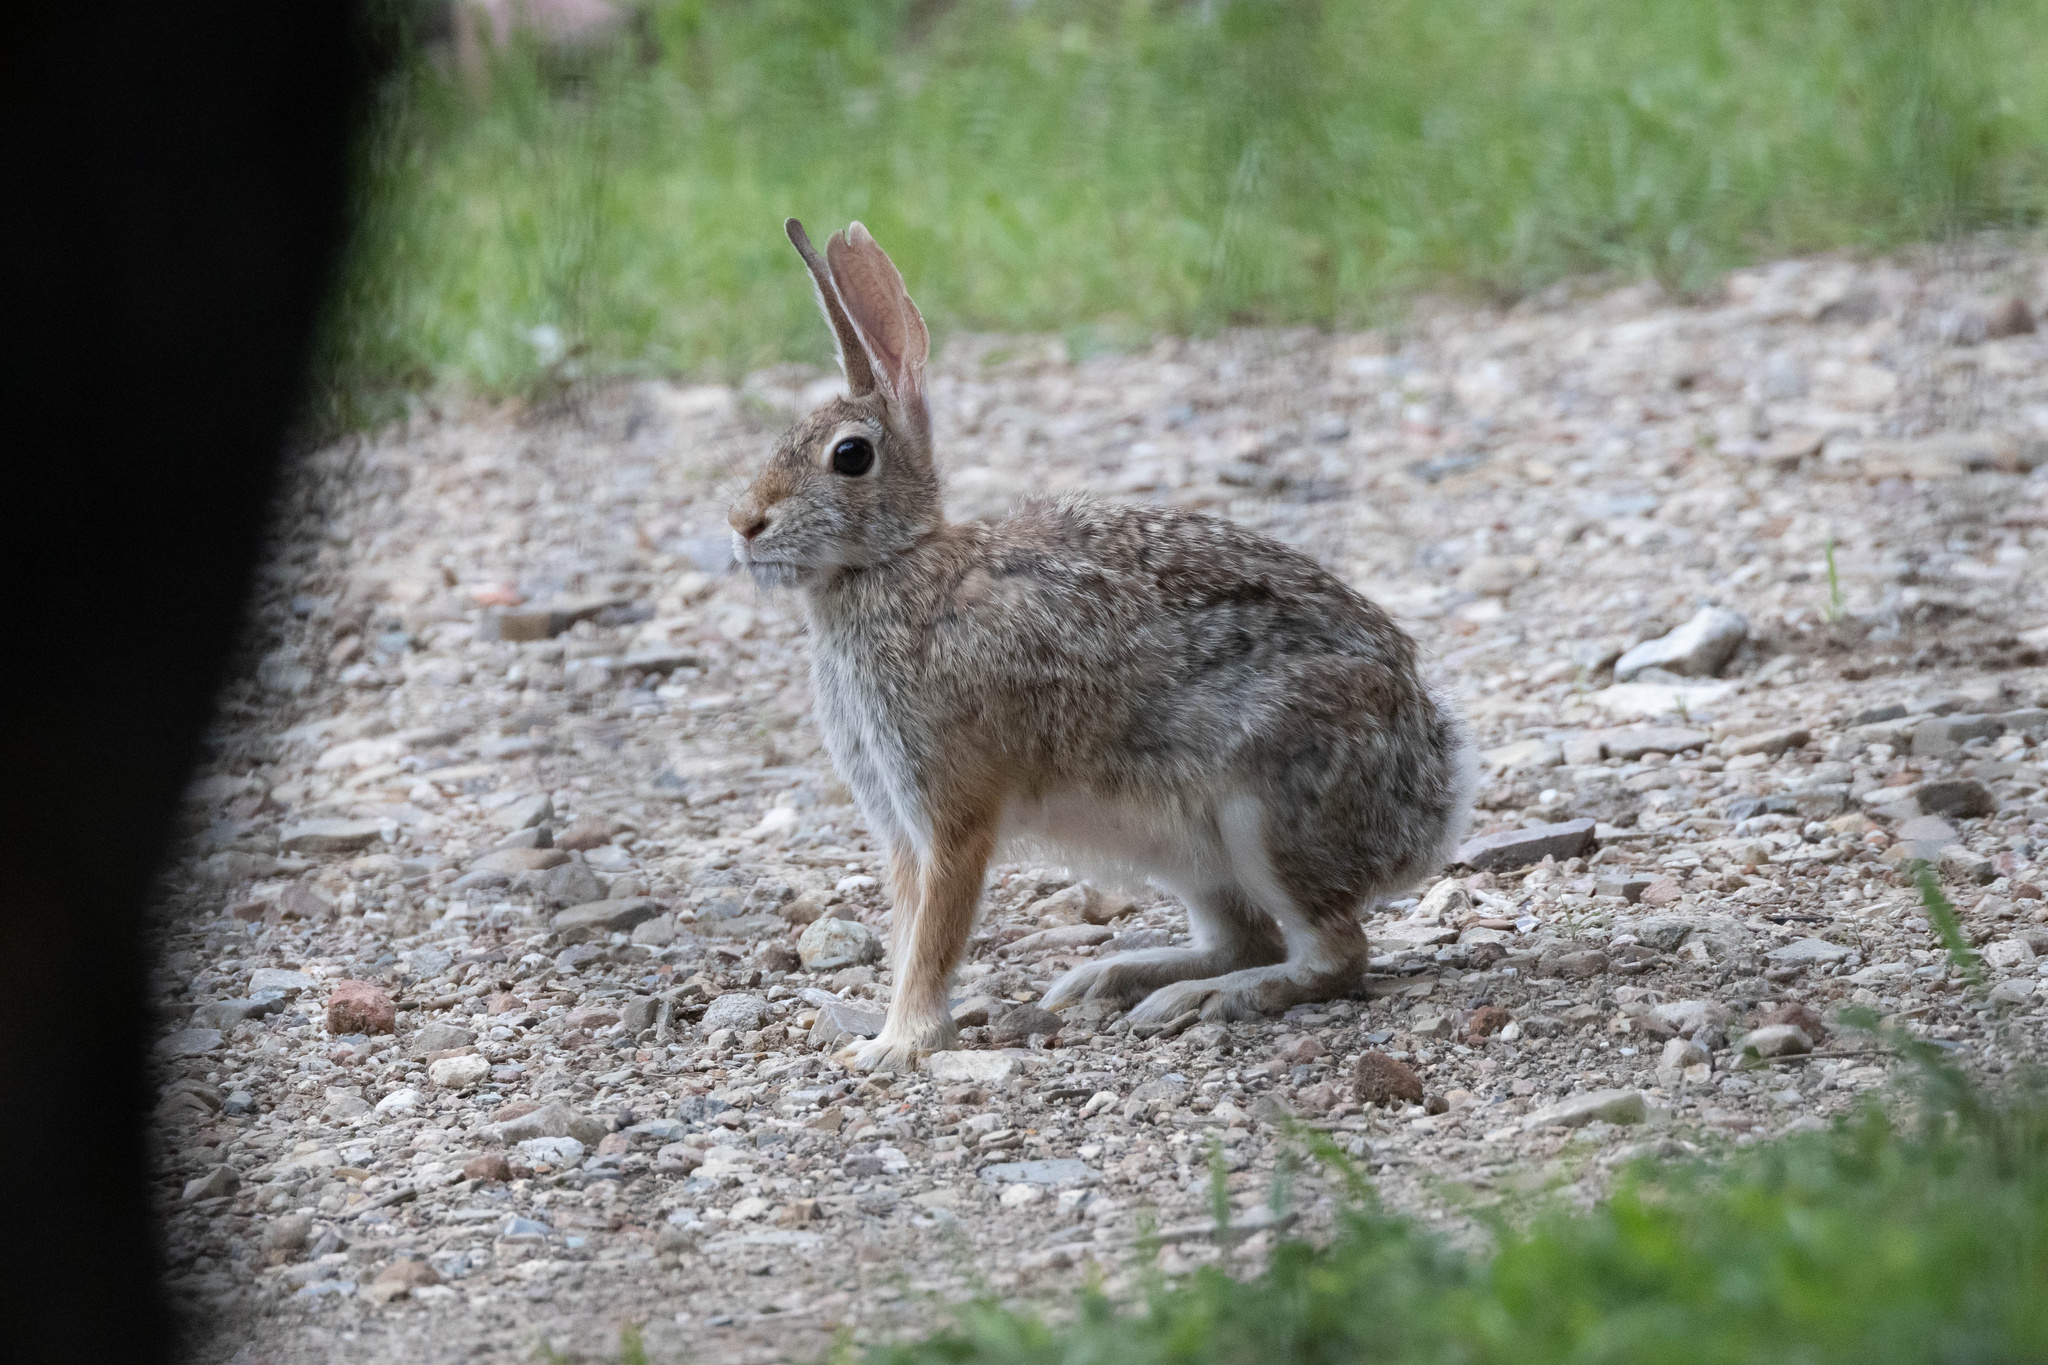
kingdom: Animalia
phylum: Chordata
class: Mammalia
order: Lagomorpha
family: Leporidae
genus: Sylvilagus
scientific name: Sylvilagus
